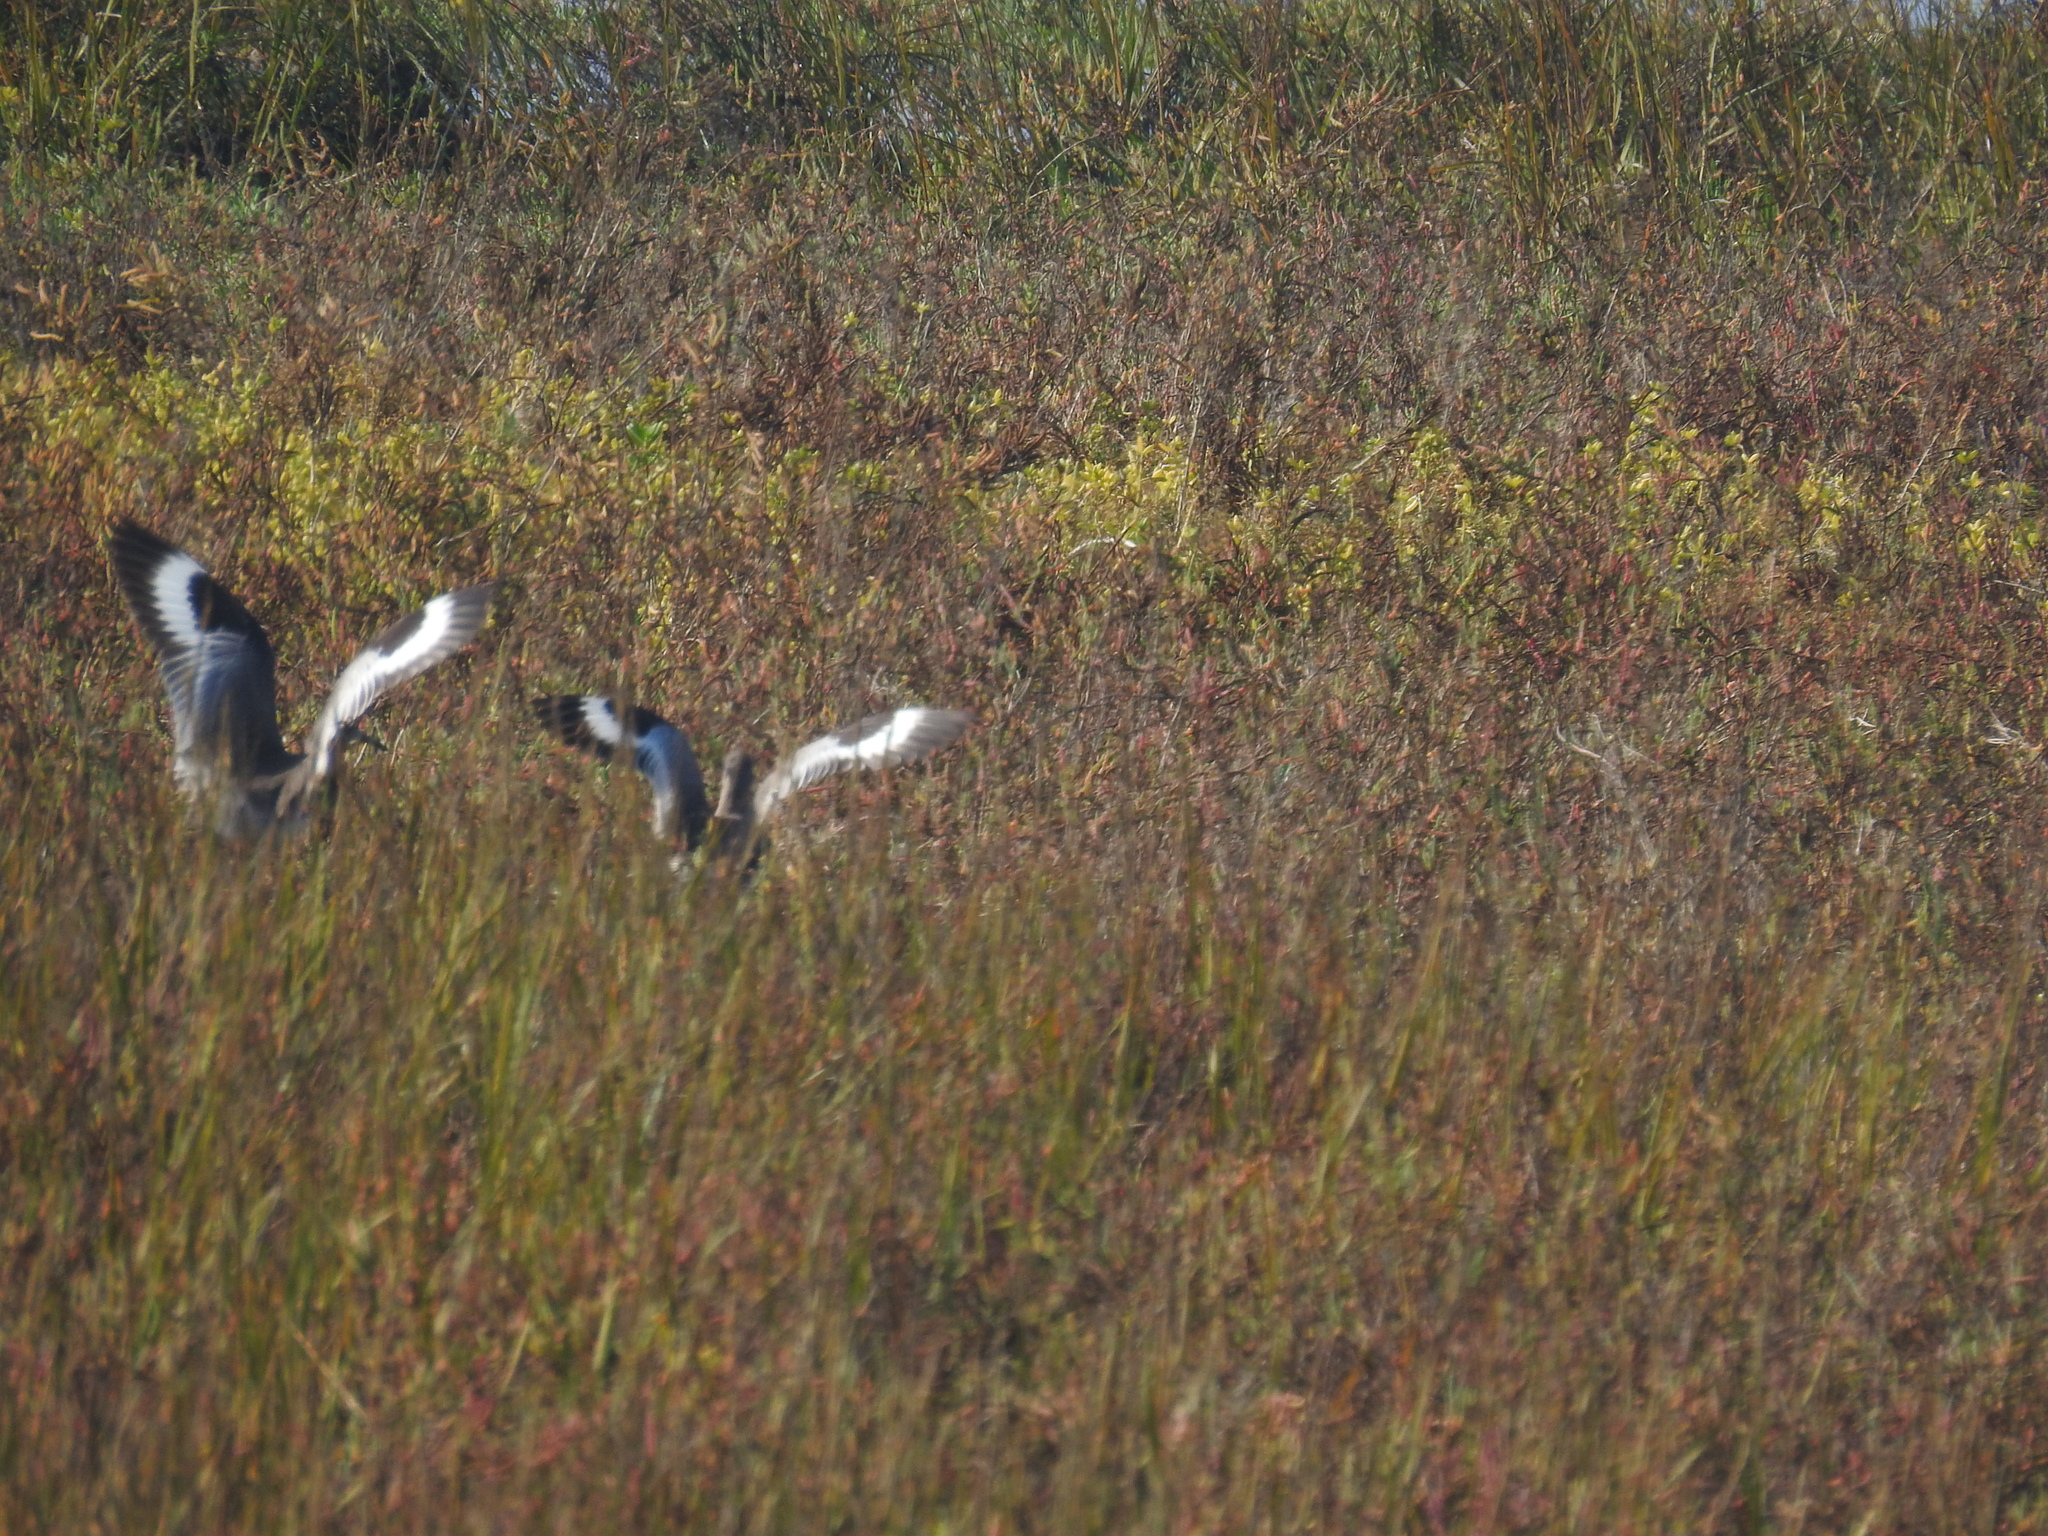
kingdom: Animalia
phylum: Chordata
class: Aves
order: Charadriiformes
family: Scolopacidae
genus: Tringa
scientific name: Tringa semipalmata
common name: Willet
